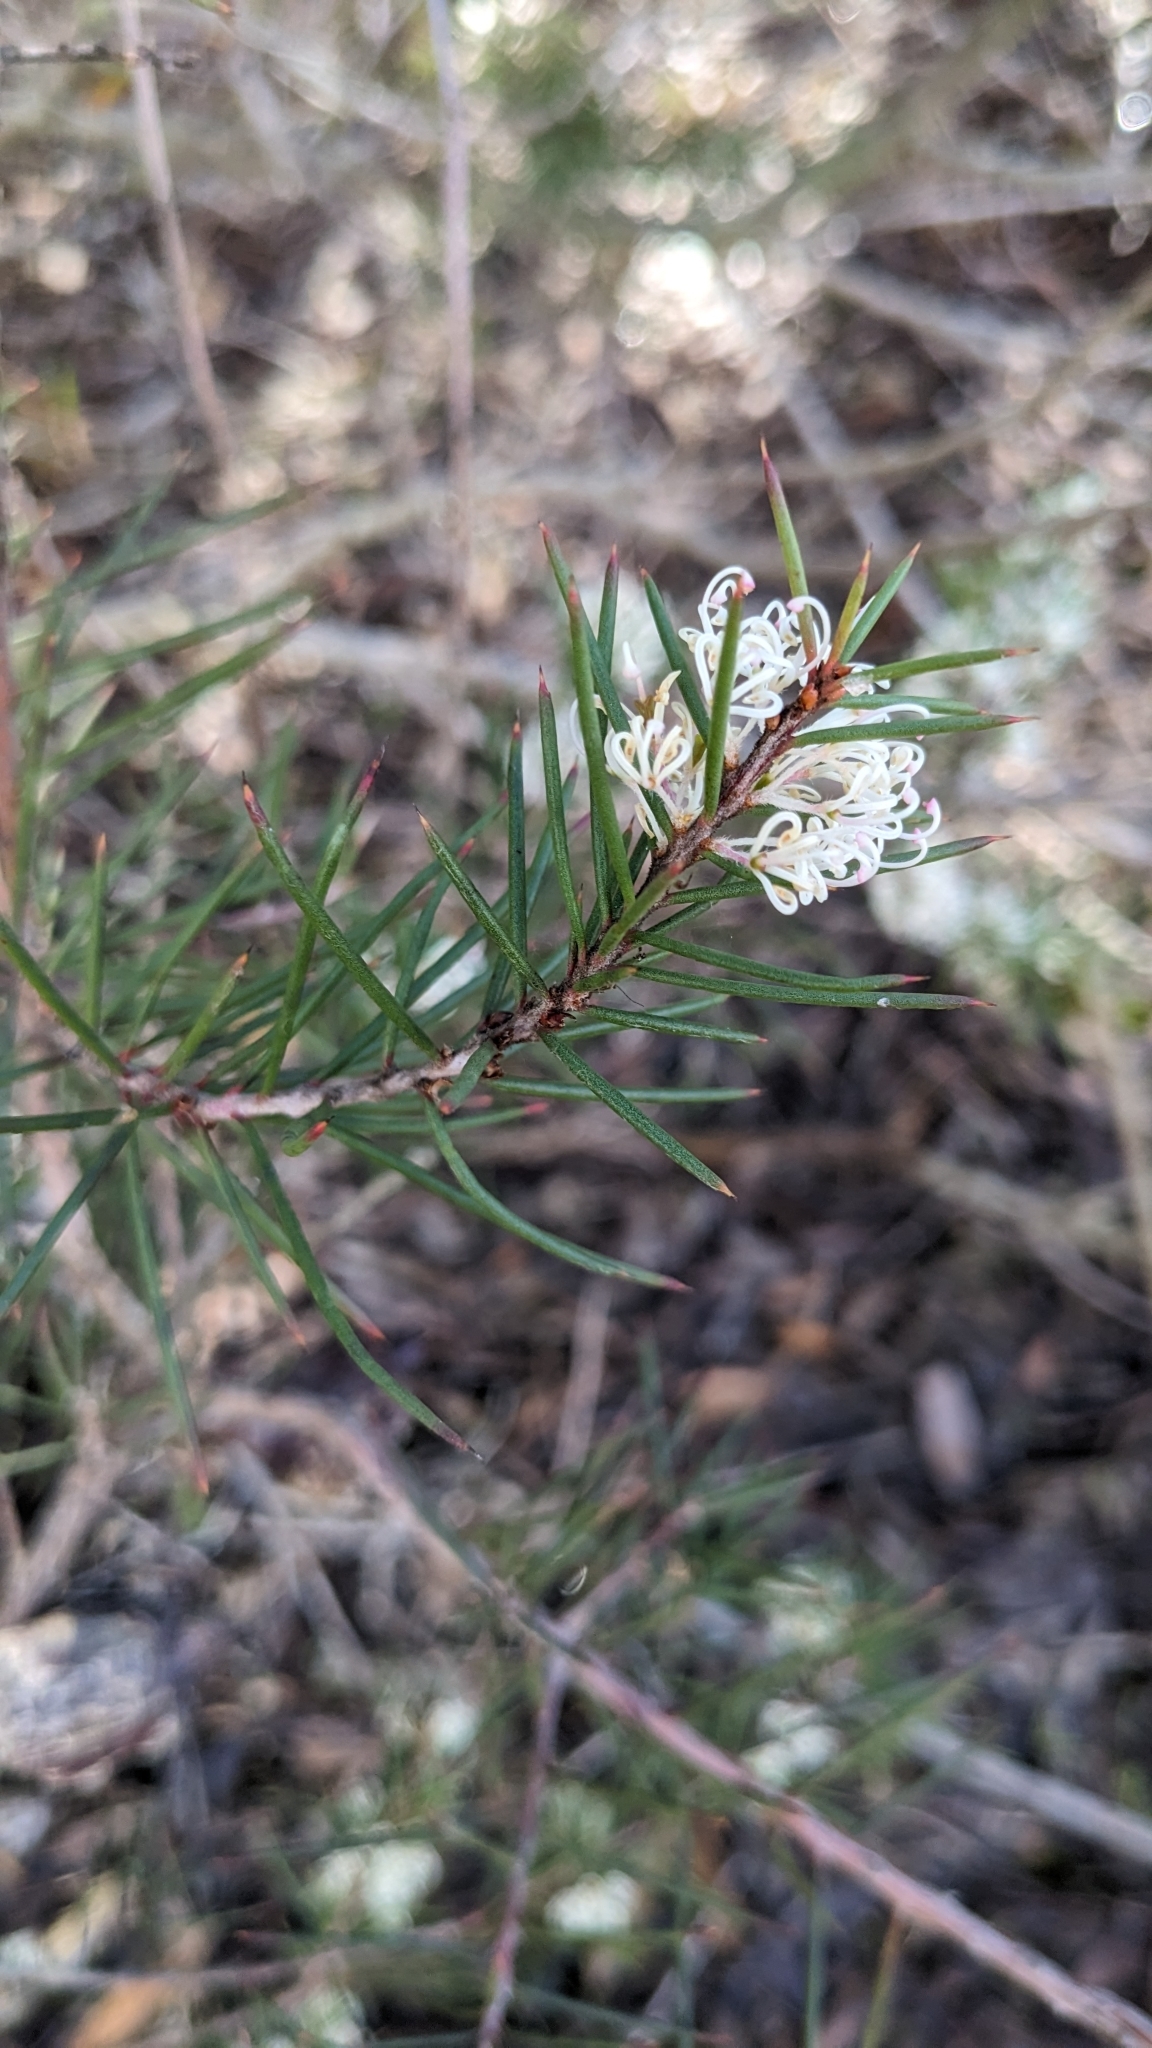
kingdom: Plantae
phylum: Tracheophyta
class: Magnoliopsida
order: Proteales
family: Proteaceae
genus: Hakea
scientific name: Hakea sericea
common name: Needle bush
